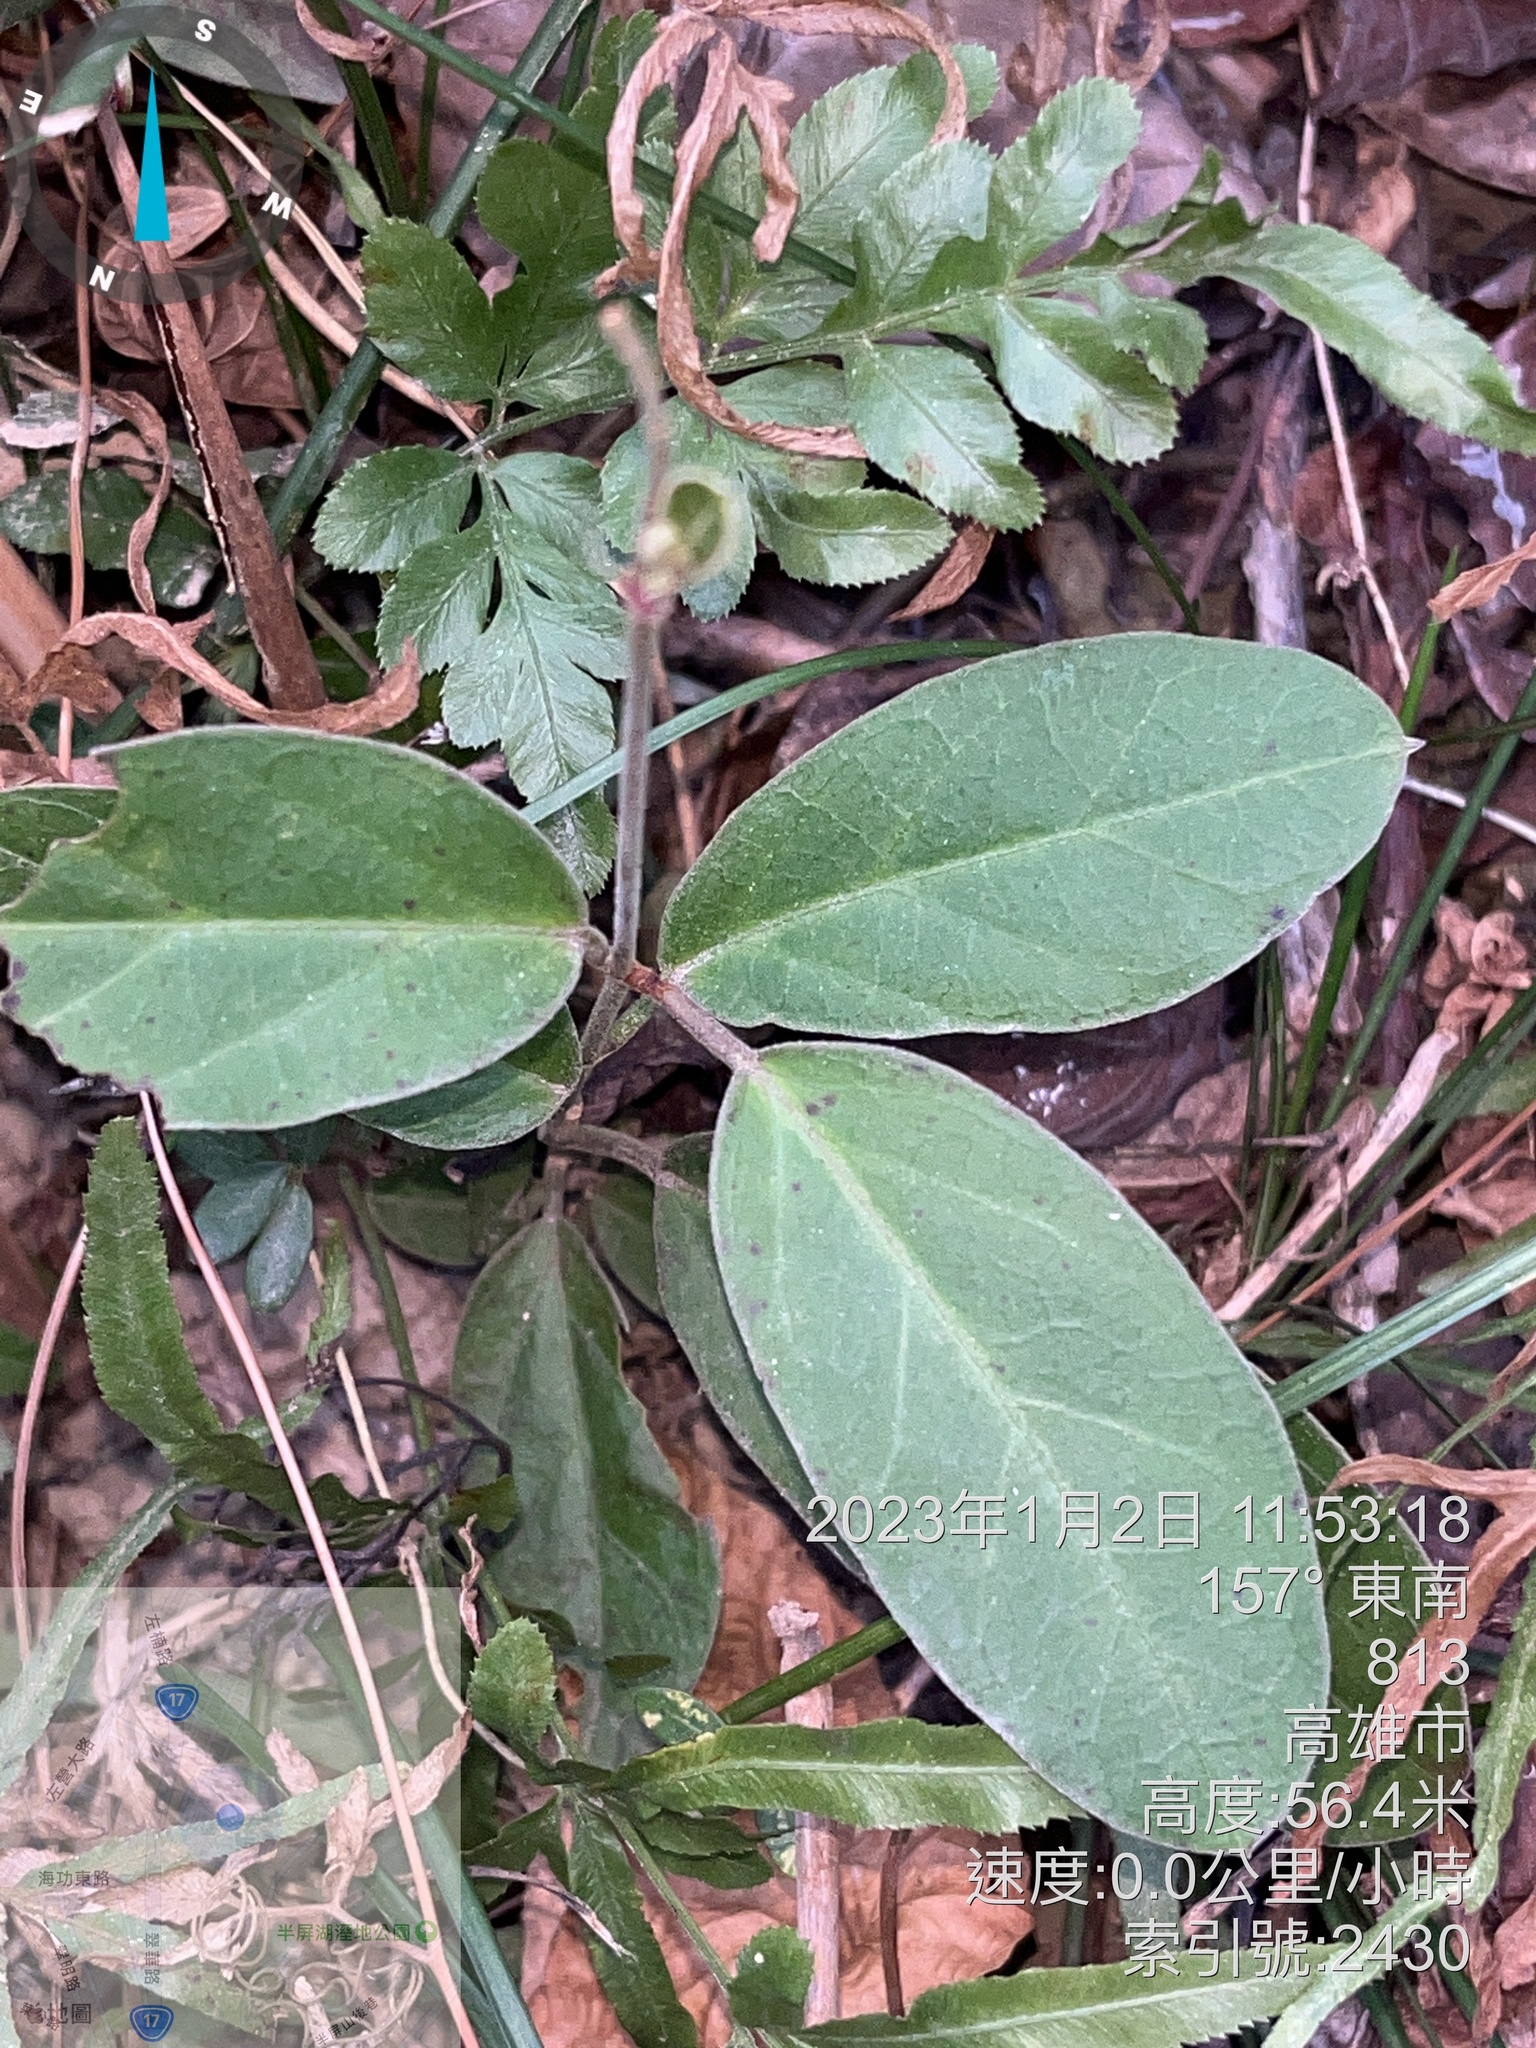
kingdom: Plantae
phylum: Tracheophyta
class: Magnoliopsida
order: Gentianales
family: Apocynaceae
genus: Vincetoxicum
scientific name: Vincetoxicum hirsutum
